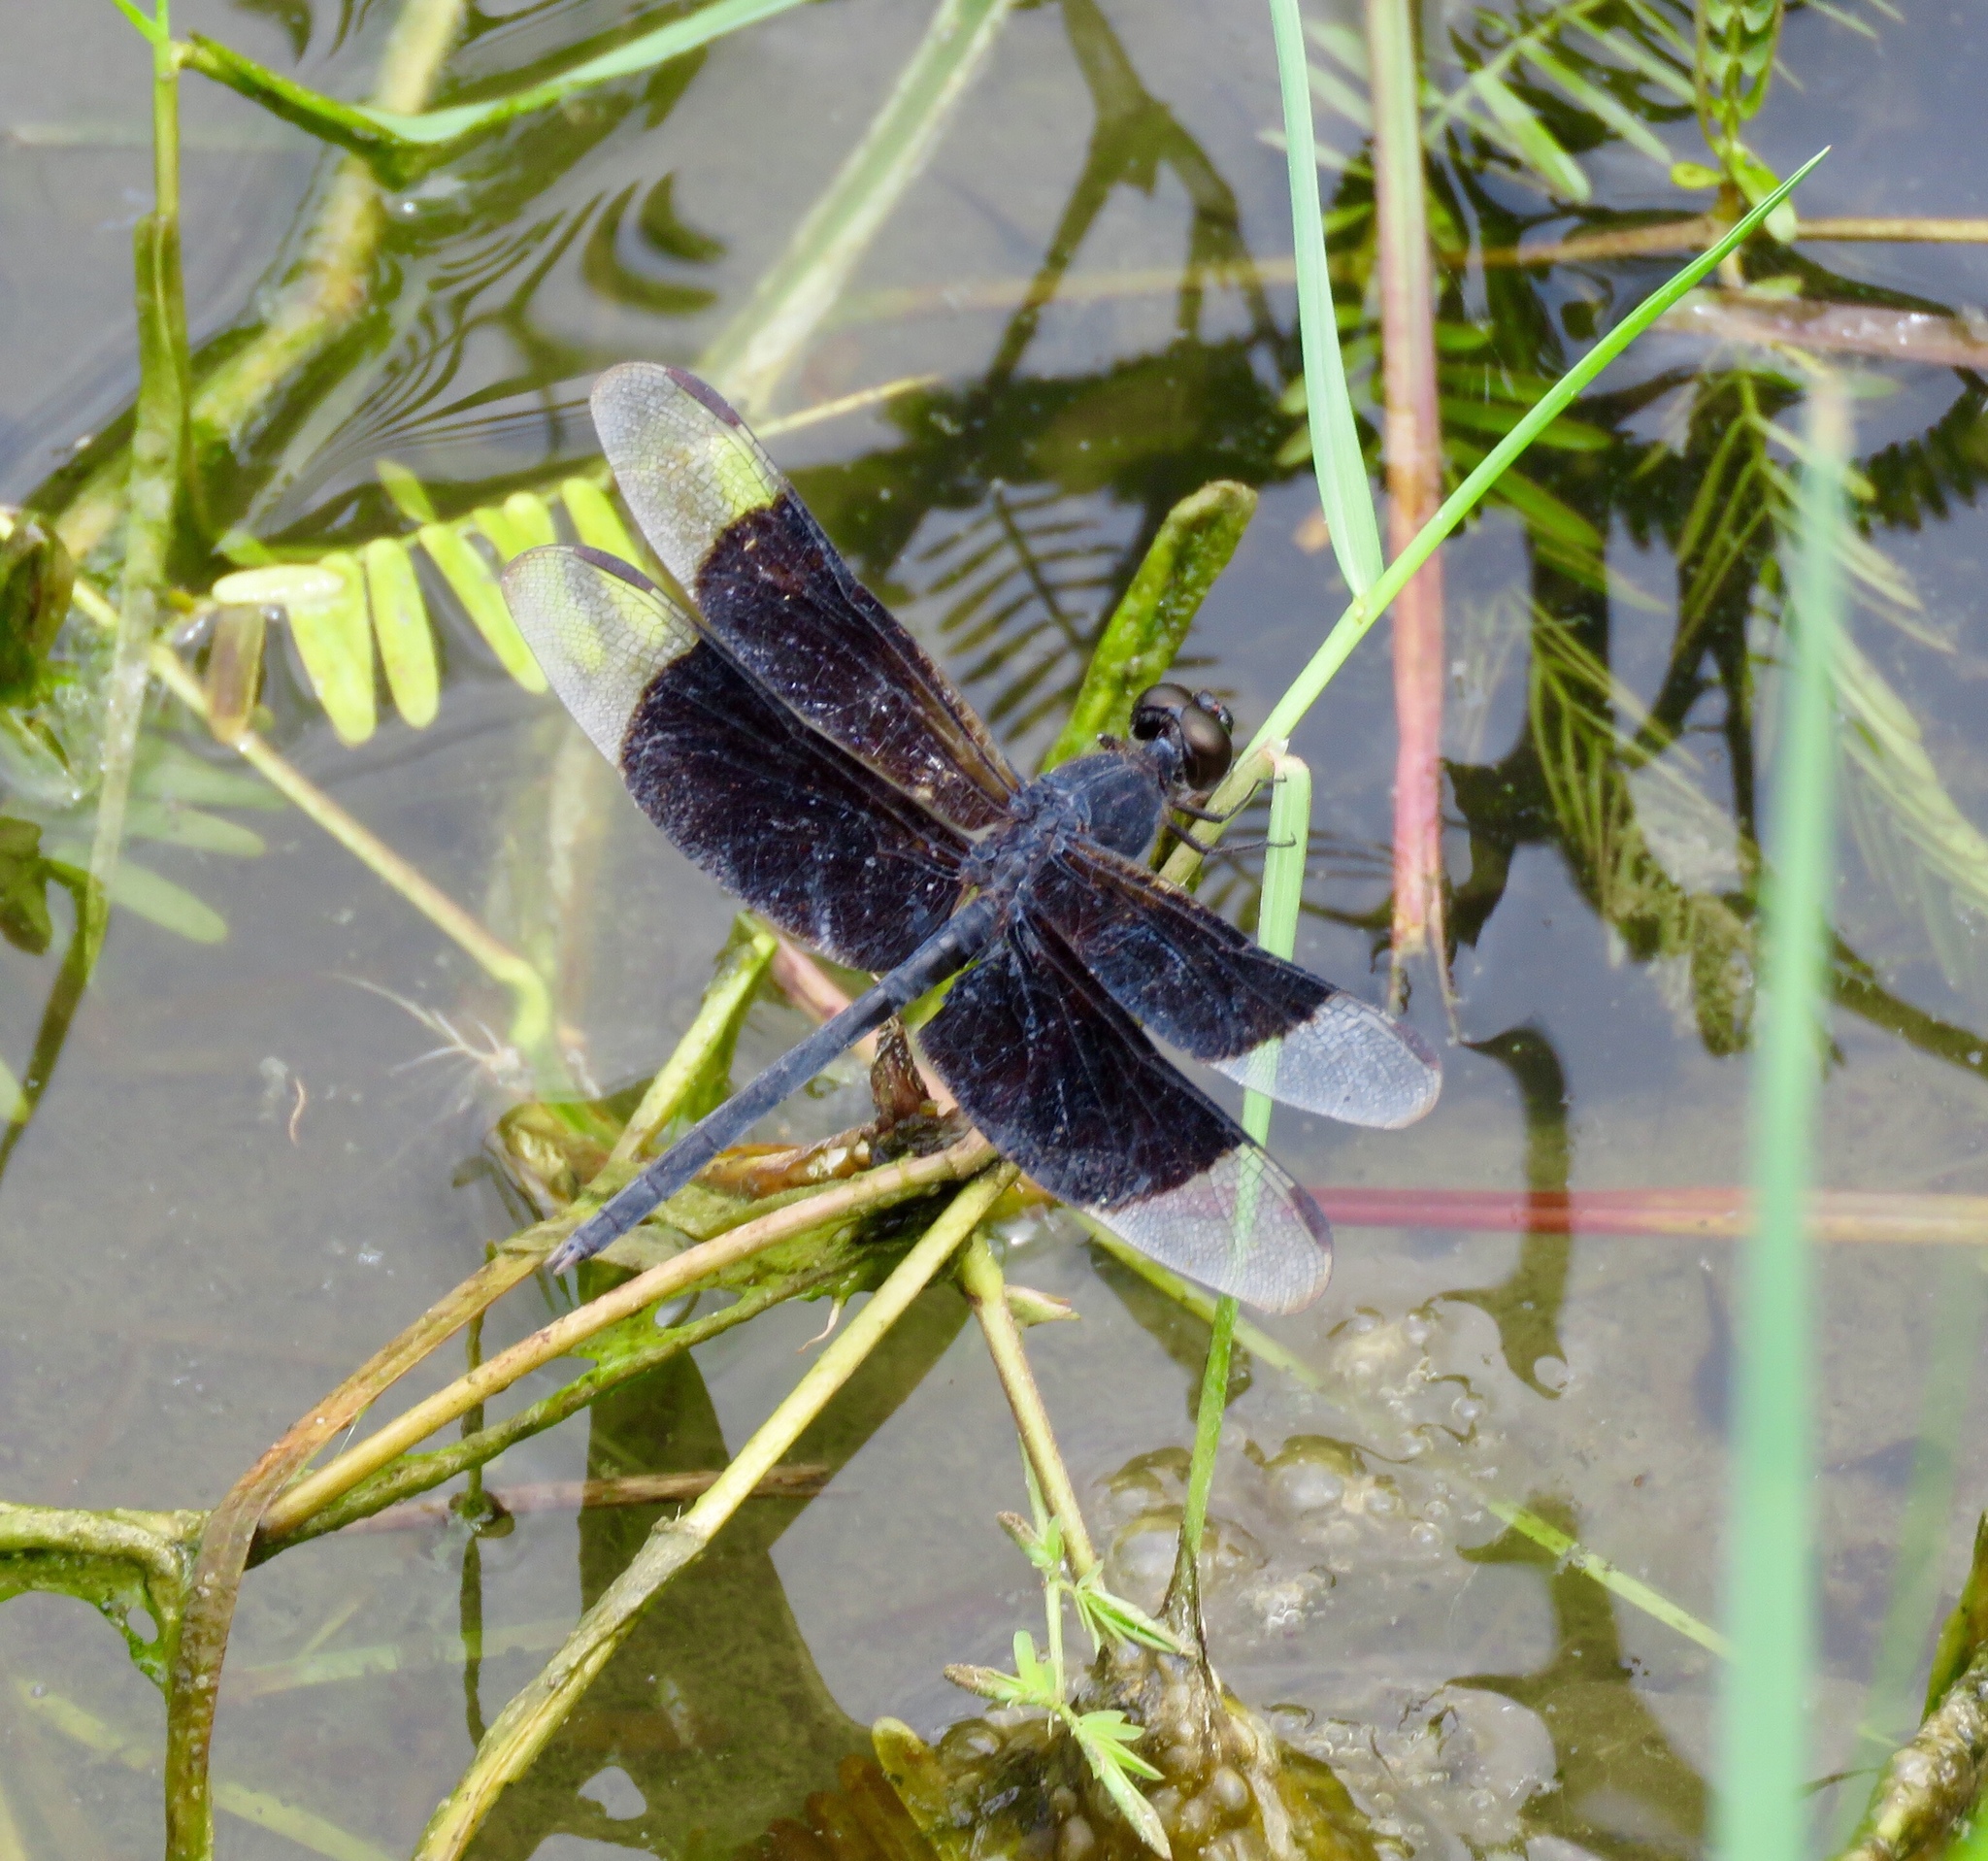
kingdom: Animalia
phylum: Arthropoda
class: Insecta
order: Odonata
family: Libellulidae
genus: Erythrodiplax
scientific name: Erythrodiplax funerea
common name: Black-winged dragonlet
